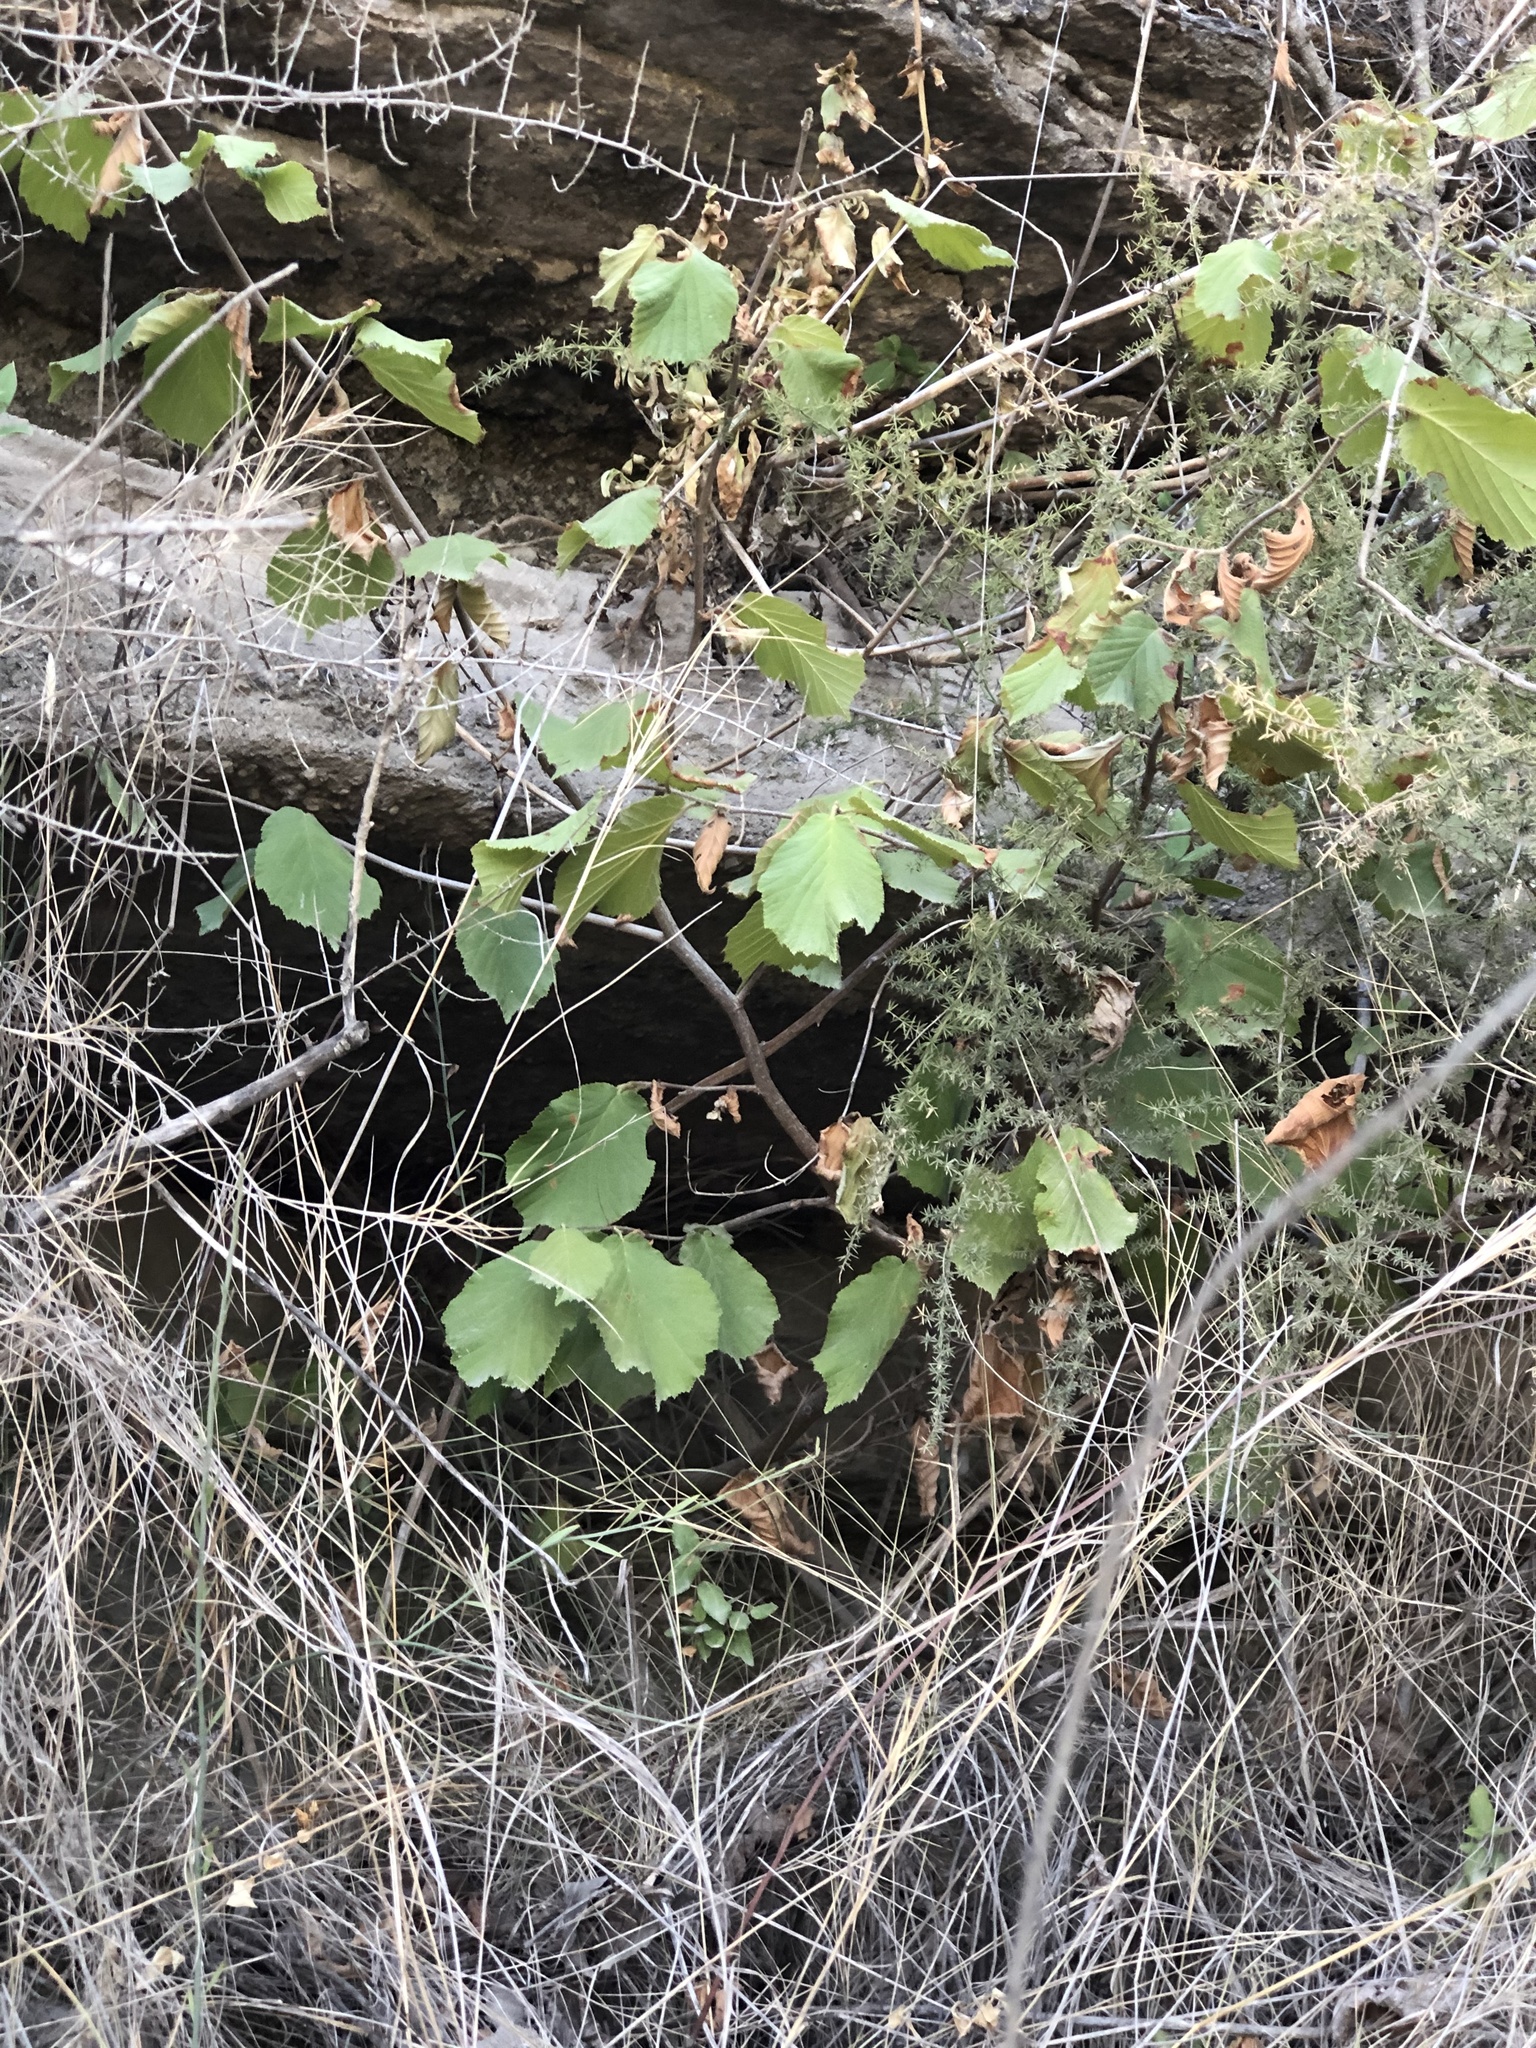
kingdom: Plantae
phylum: Tracheophyta
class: Magnoliopsida
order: Fagales
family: Betulaceae
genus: Corylus
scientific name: Corylus avellana
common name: European hazel
